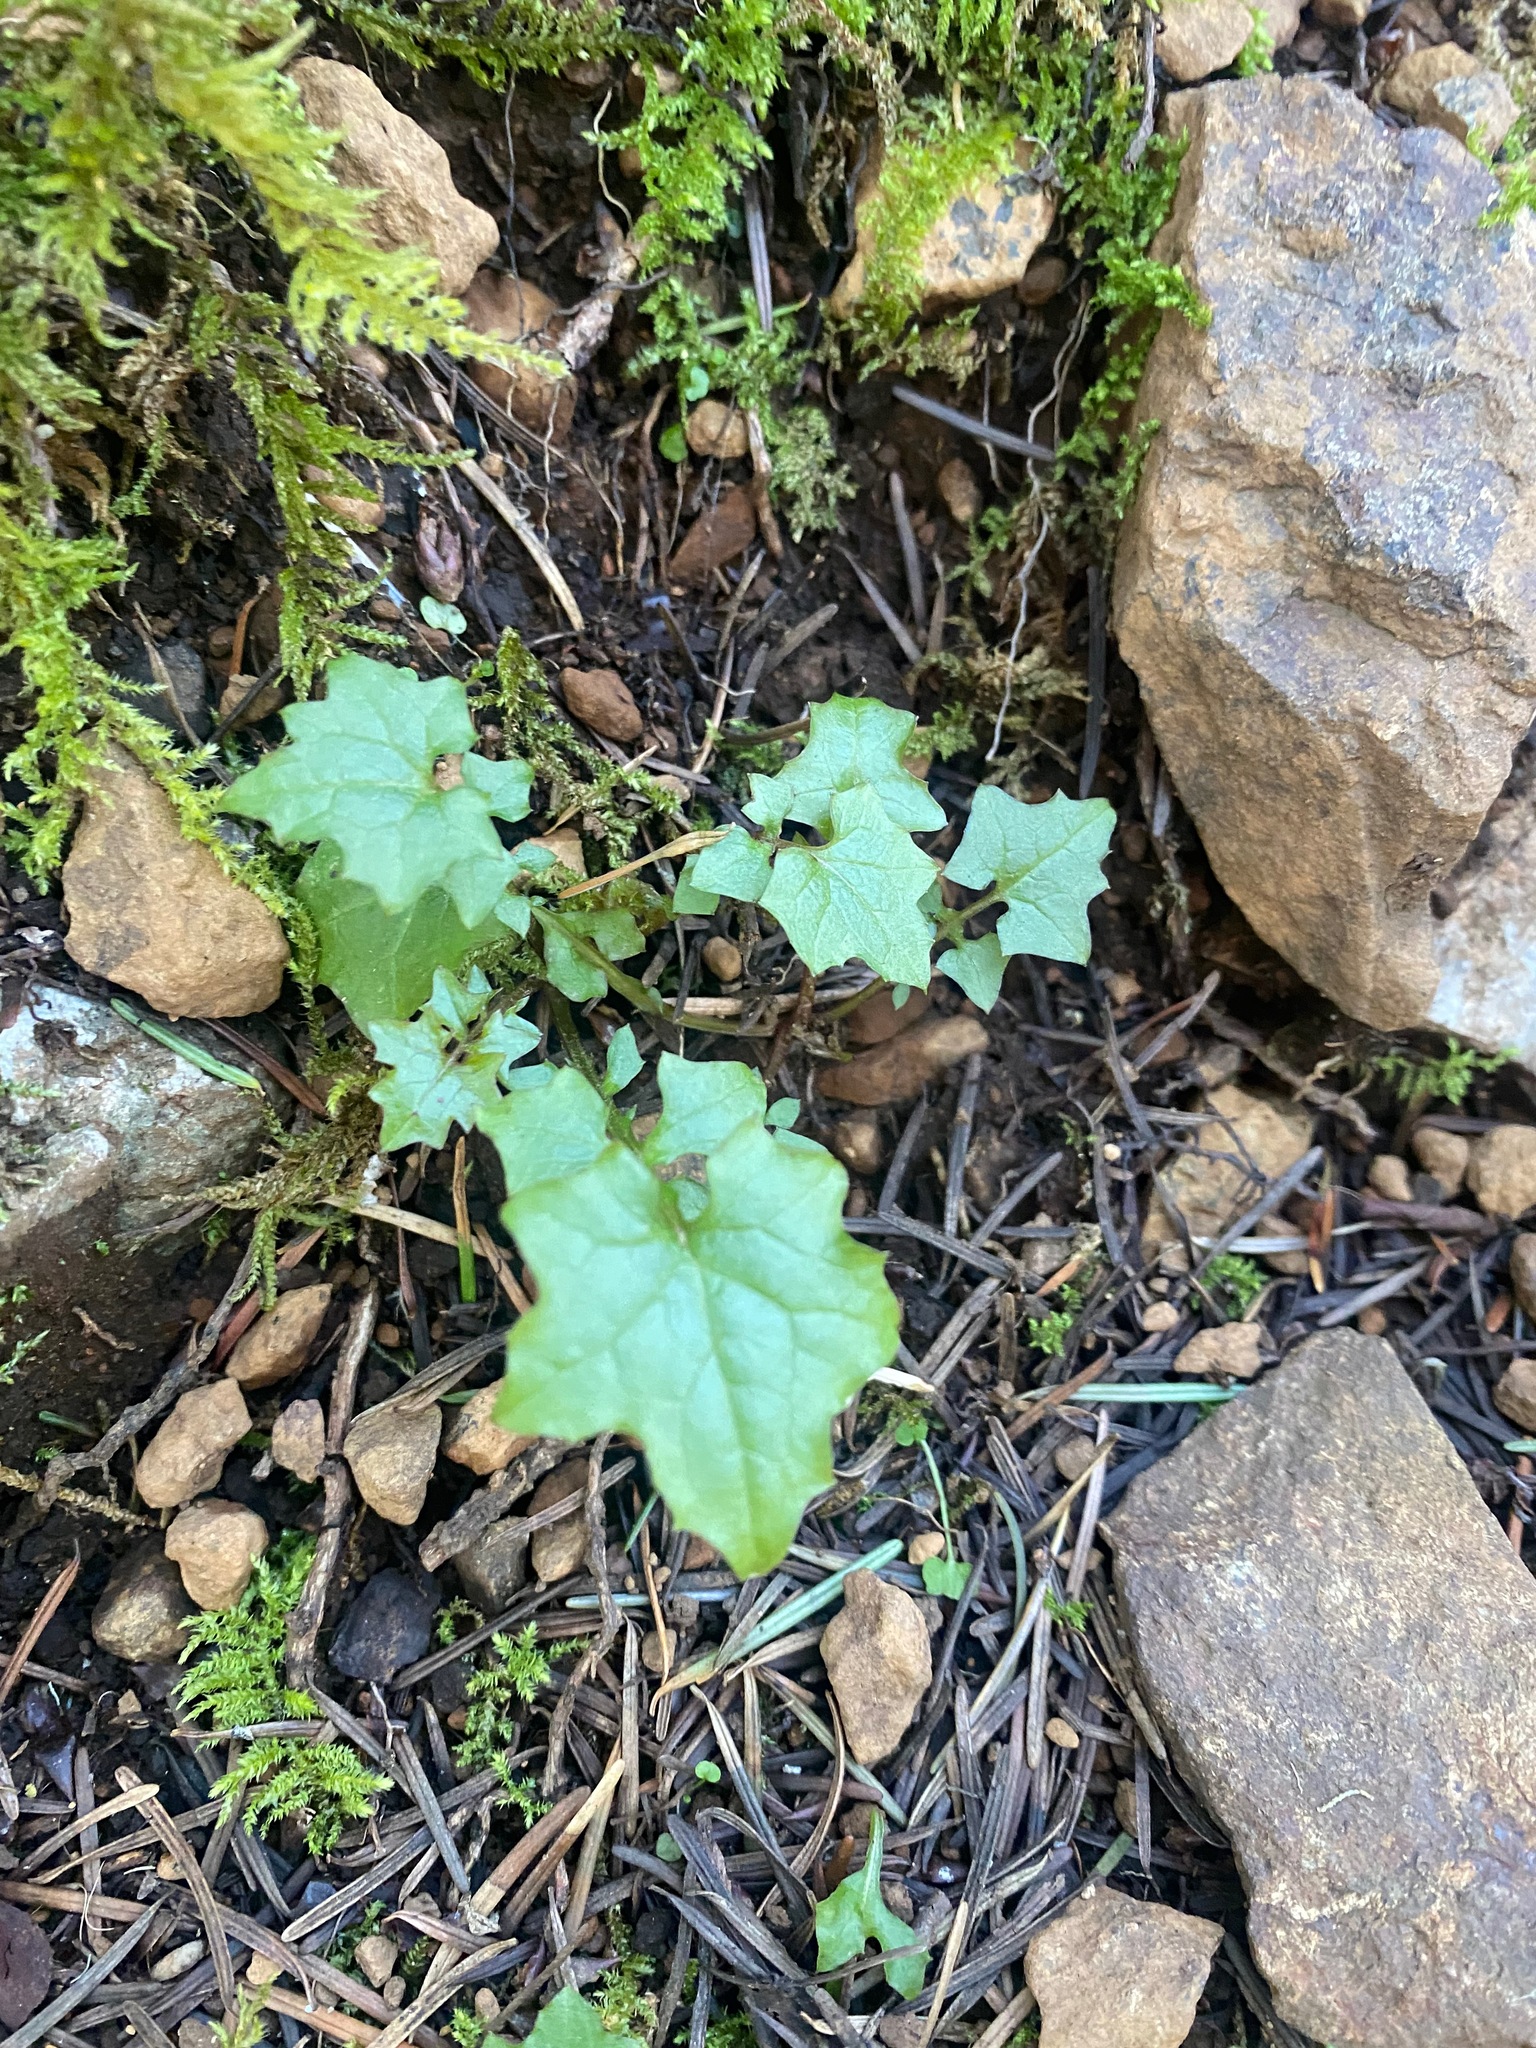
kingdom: Plantae
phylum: Tracheophyta
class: Magnoliopsida
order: Asterales
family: Asteraceae
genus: Mycelis
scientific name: Mycelis muralis
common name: Wall lettuce
